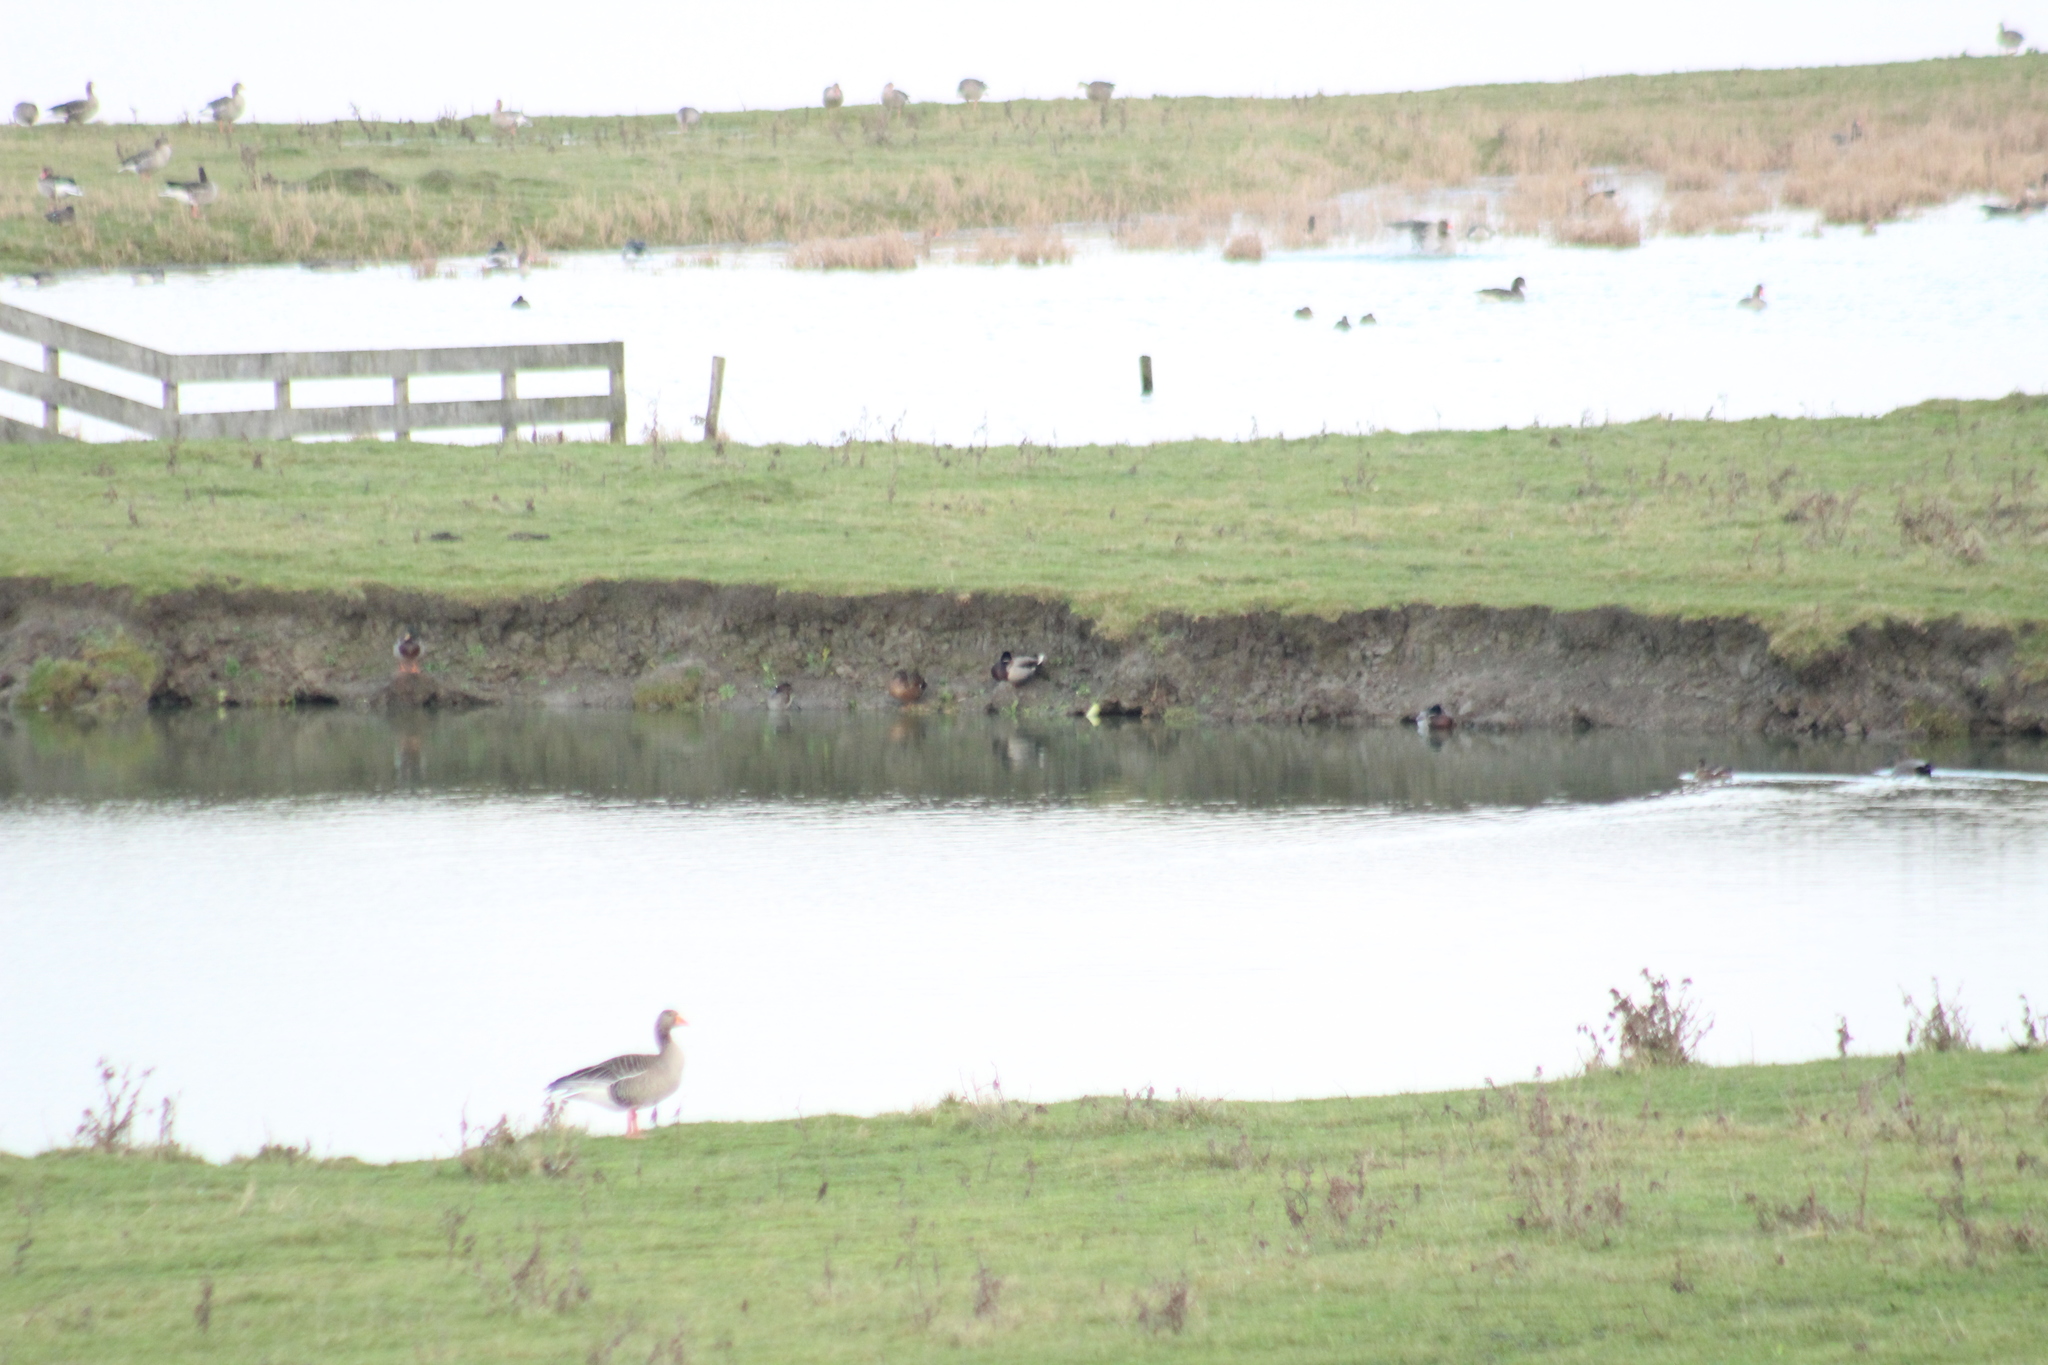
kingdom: Animalia
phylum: Chordata
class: Aves
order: Anseriformes
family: Anatidae
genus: Anas
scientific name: Anas platyrhynchos
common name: Mallard
